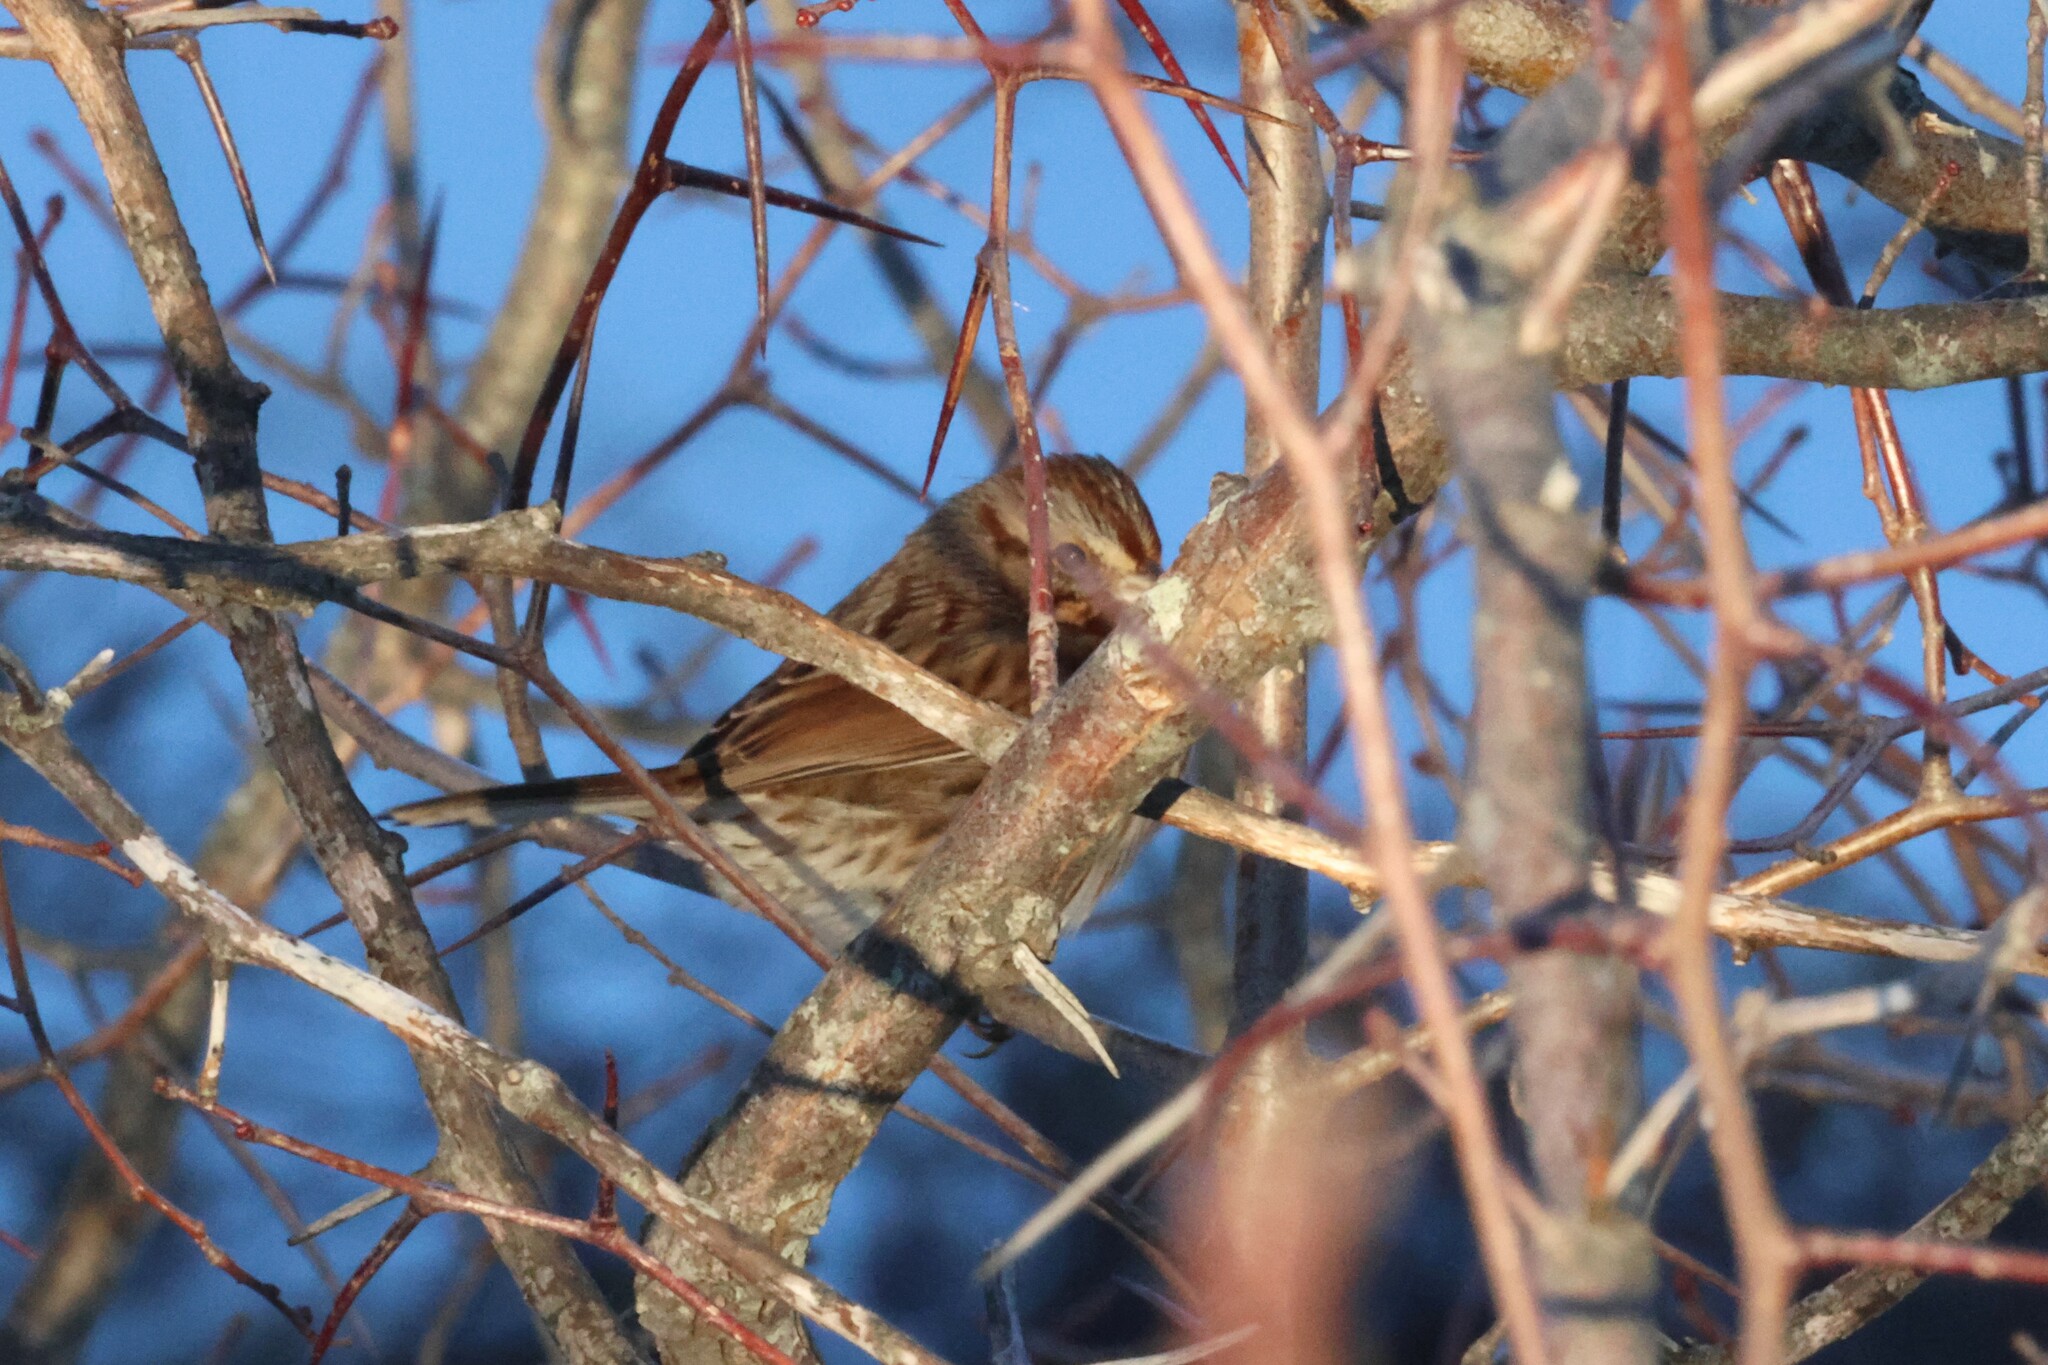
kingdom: Animalia
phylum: Chordata
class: Aves
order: Passeriformes
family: Passerellidae
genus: Melospiza
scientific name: Melospiza melodia
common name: Song sparrow
